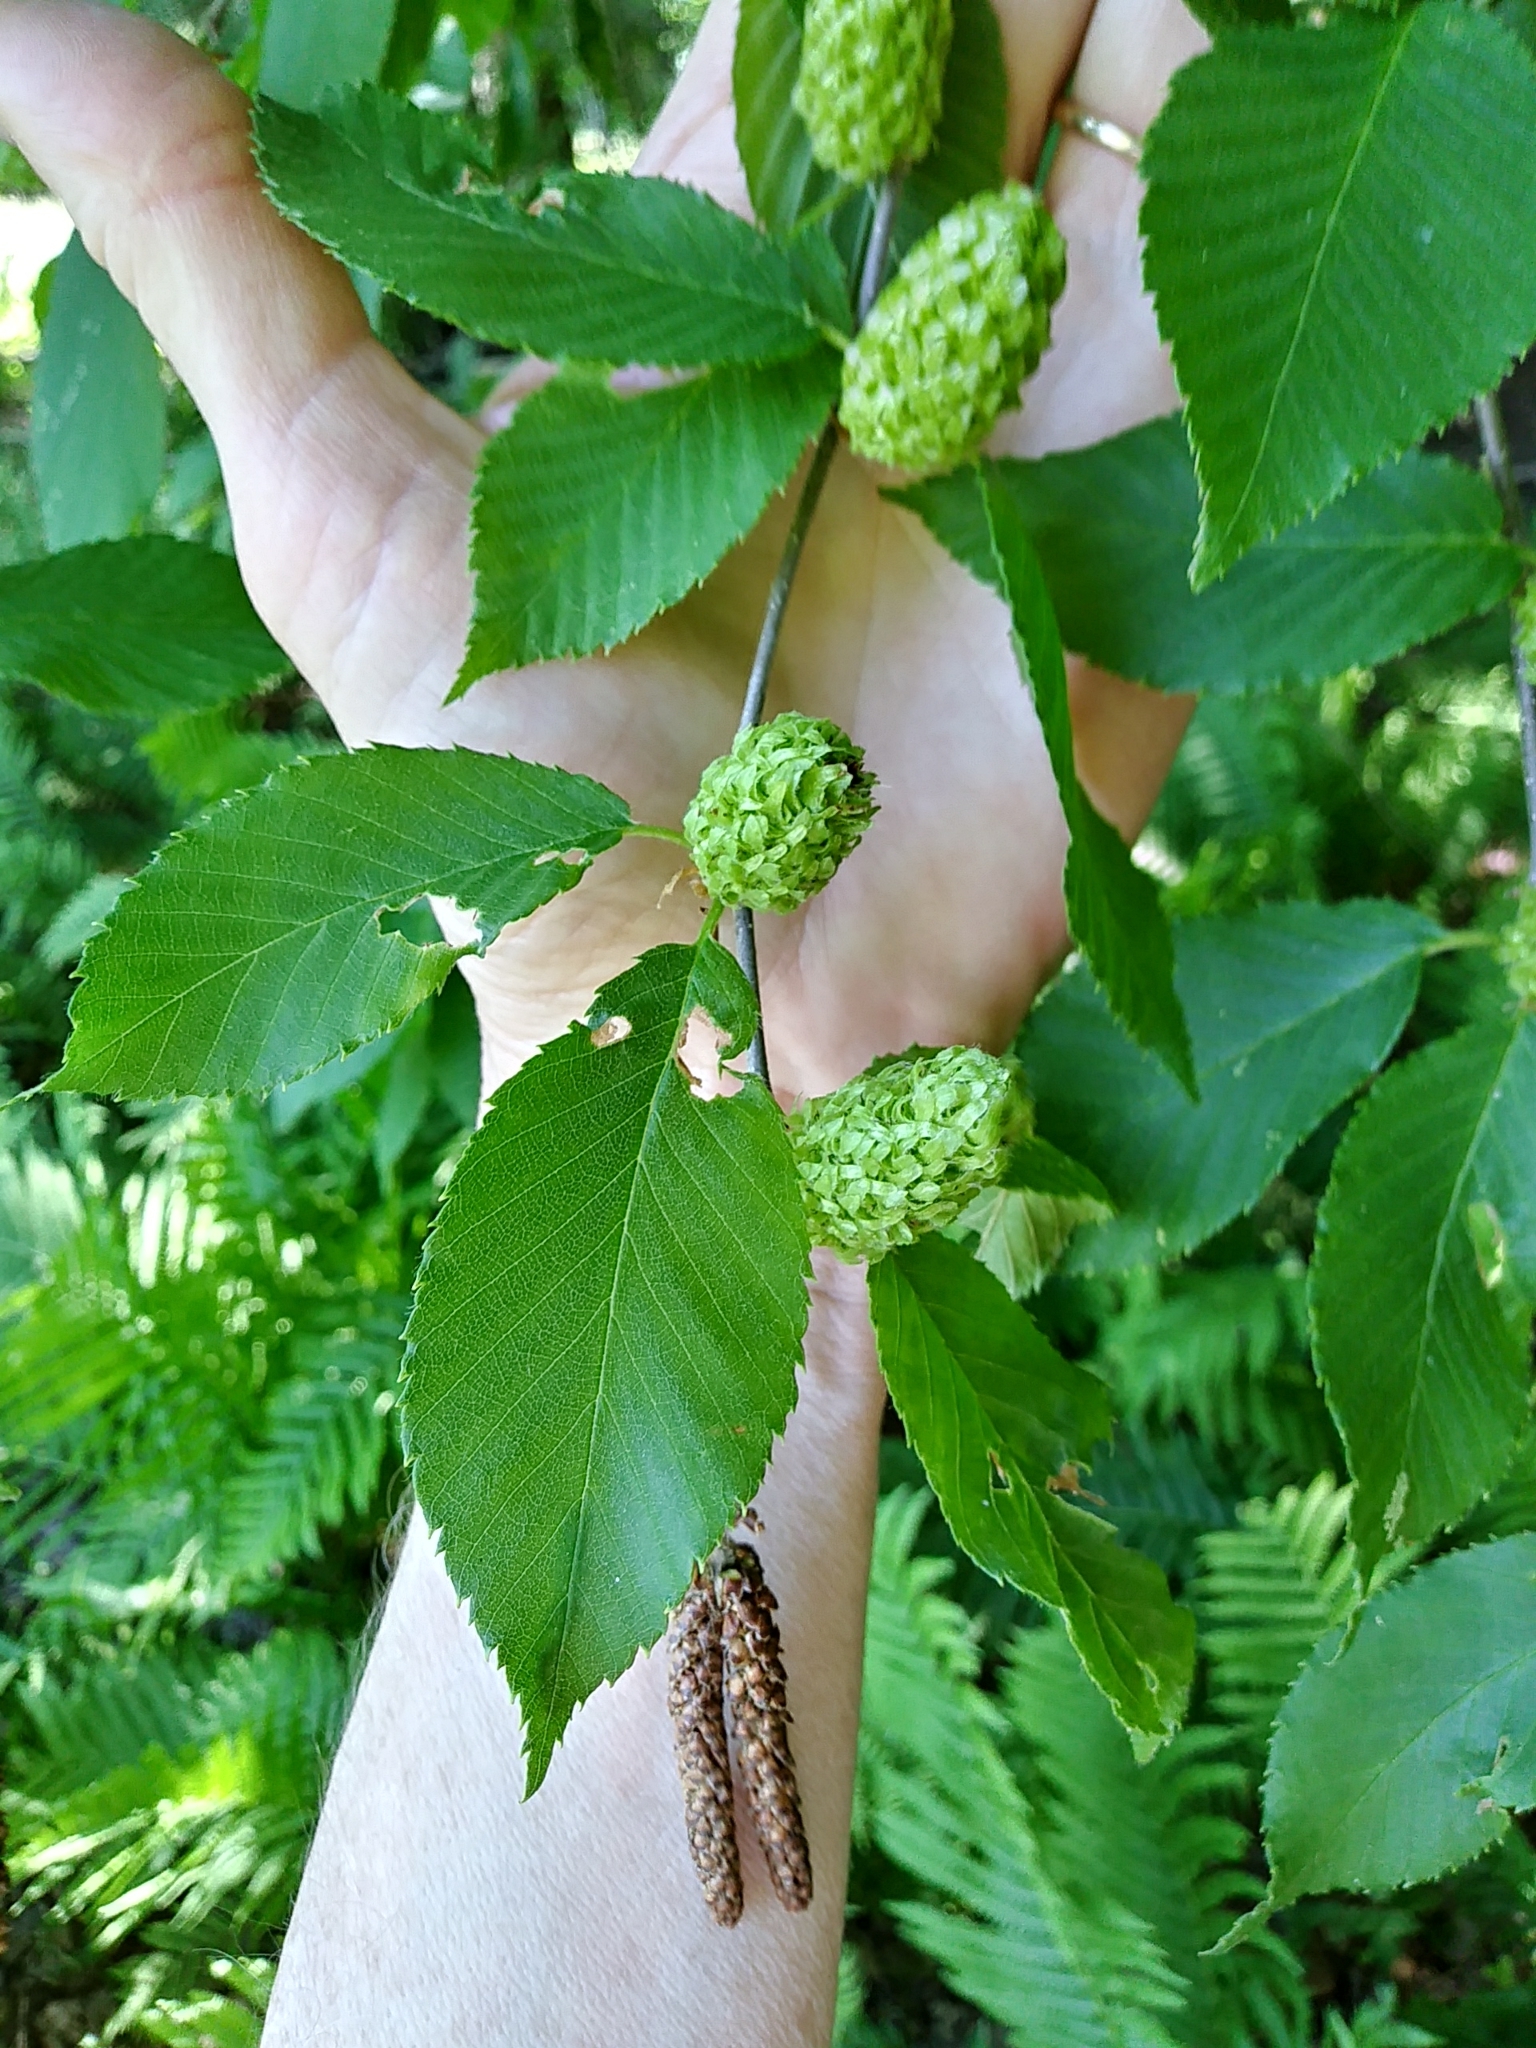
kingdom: Plantae
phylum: Tracheophyta
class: Magnoliopsida
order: Fagales
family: Betulaceae
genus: Betula
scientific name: Betula alleghaniensis
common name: Yellow birch
